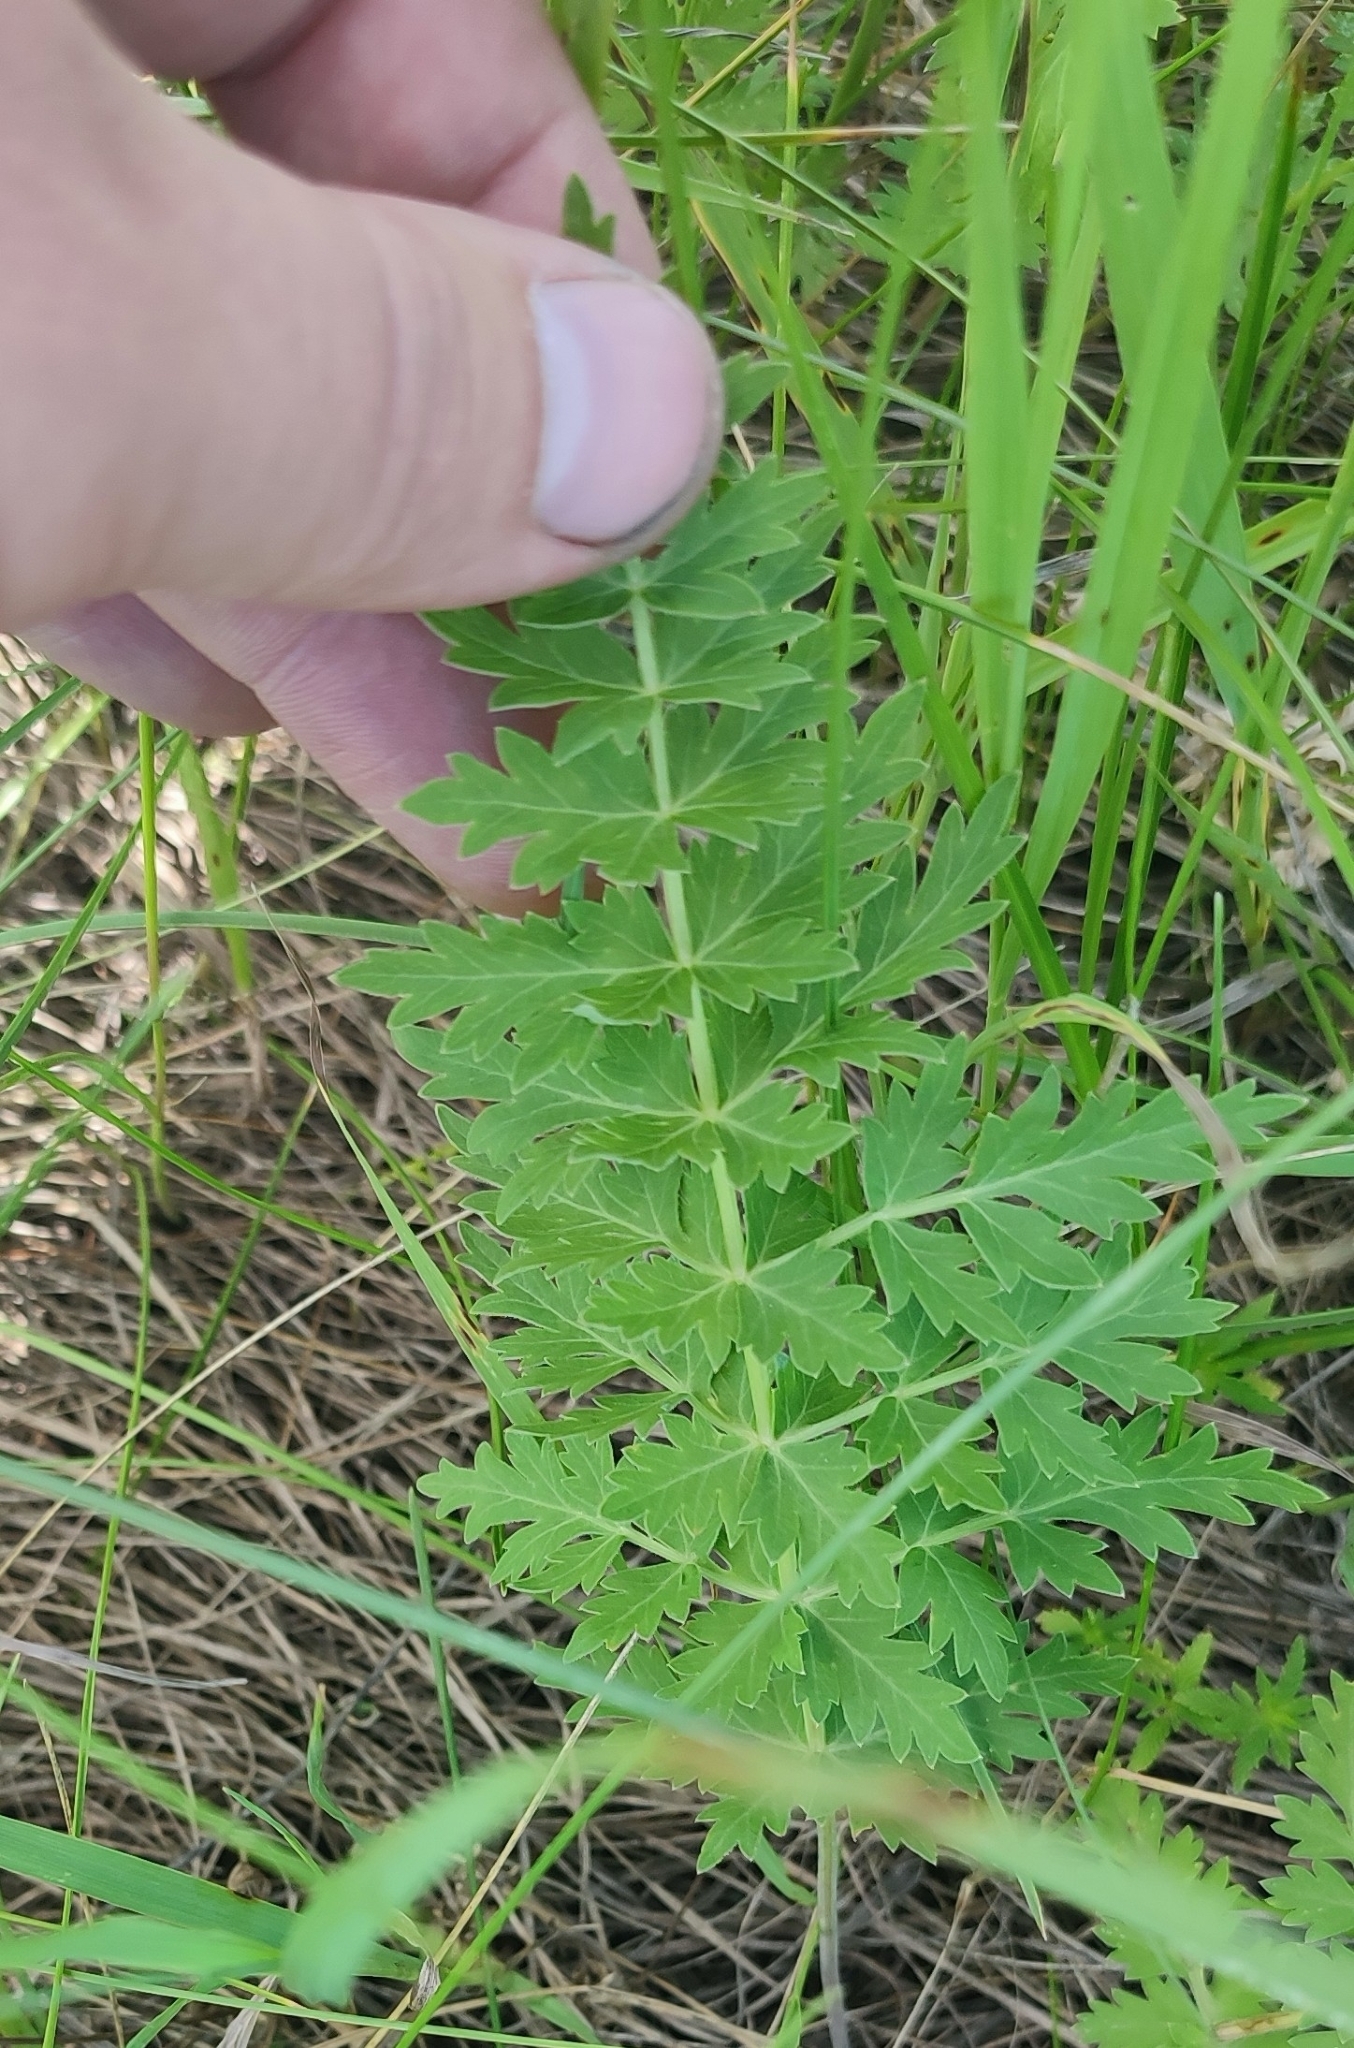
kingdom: Plantae
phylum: Tracheophyta
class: Magnoliopsida
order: Apiales
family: Apiaceae
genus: Seseli
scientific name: Seseli libanotis
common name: Mooncarrot
